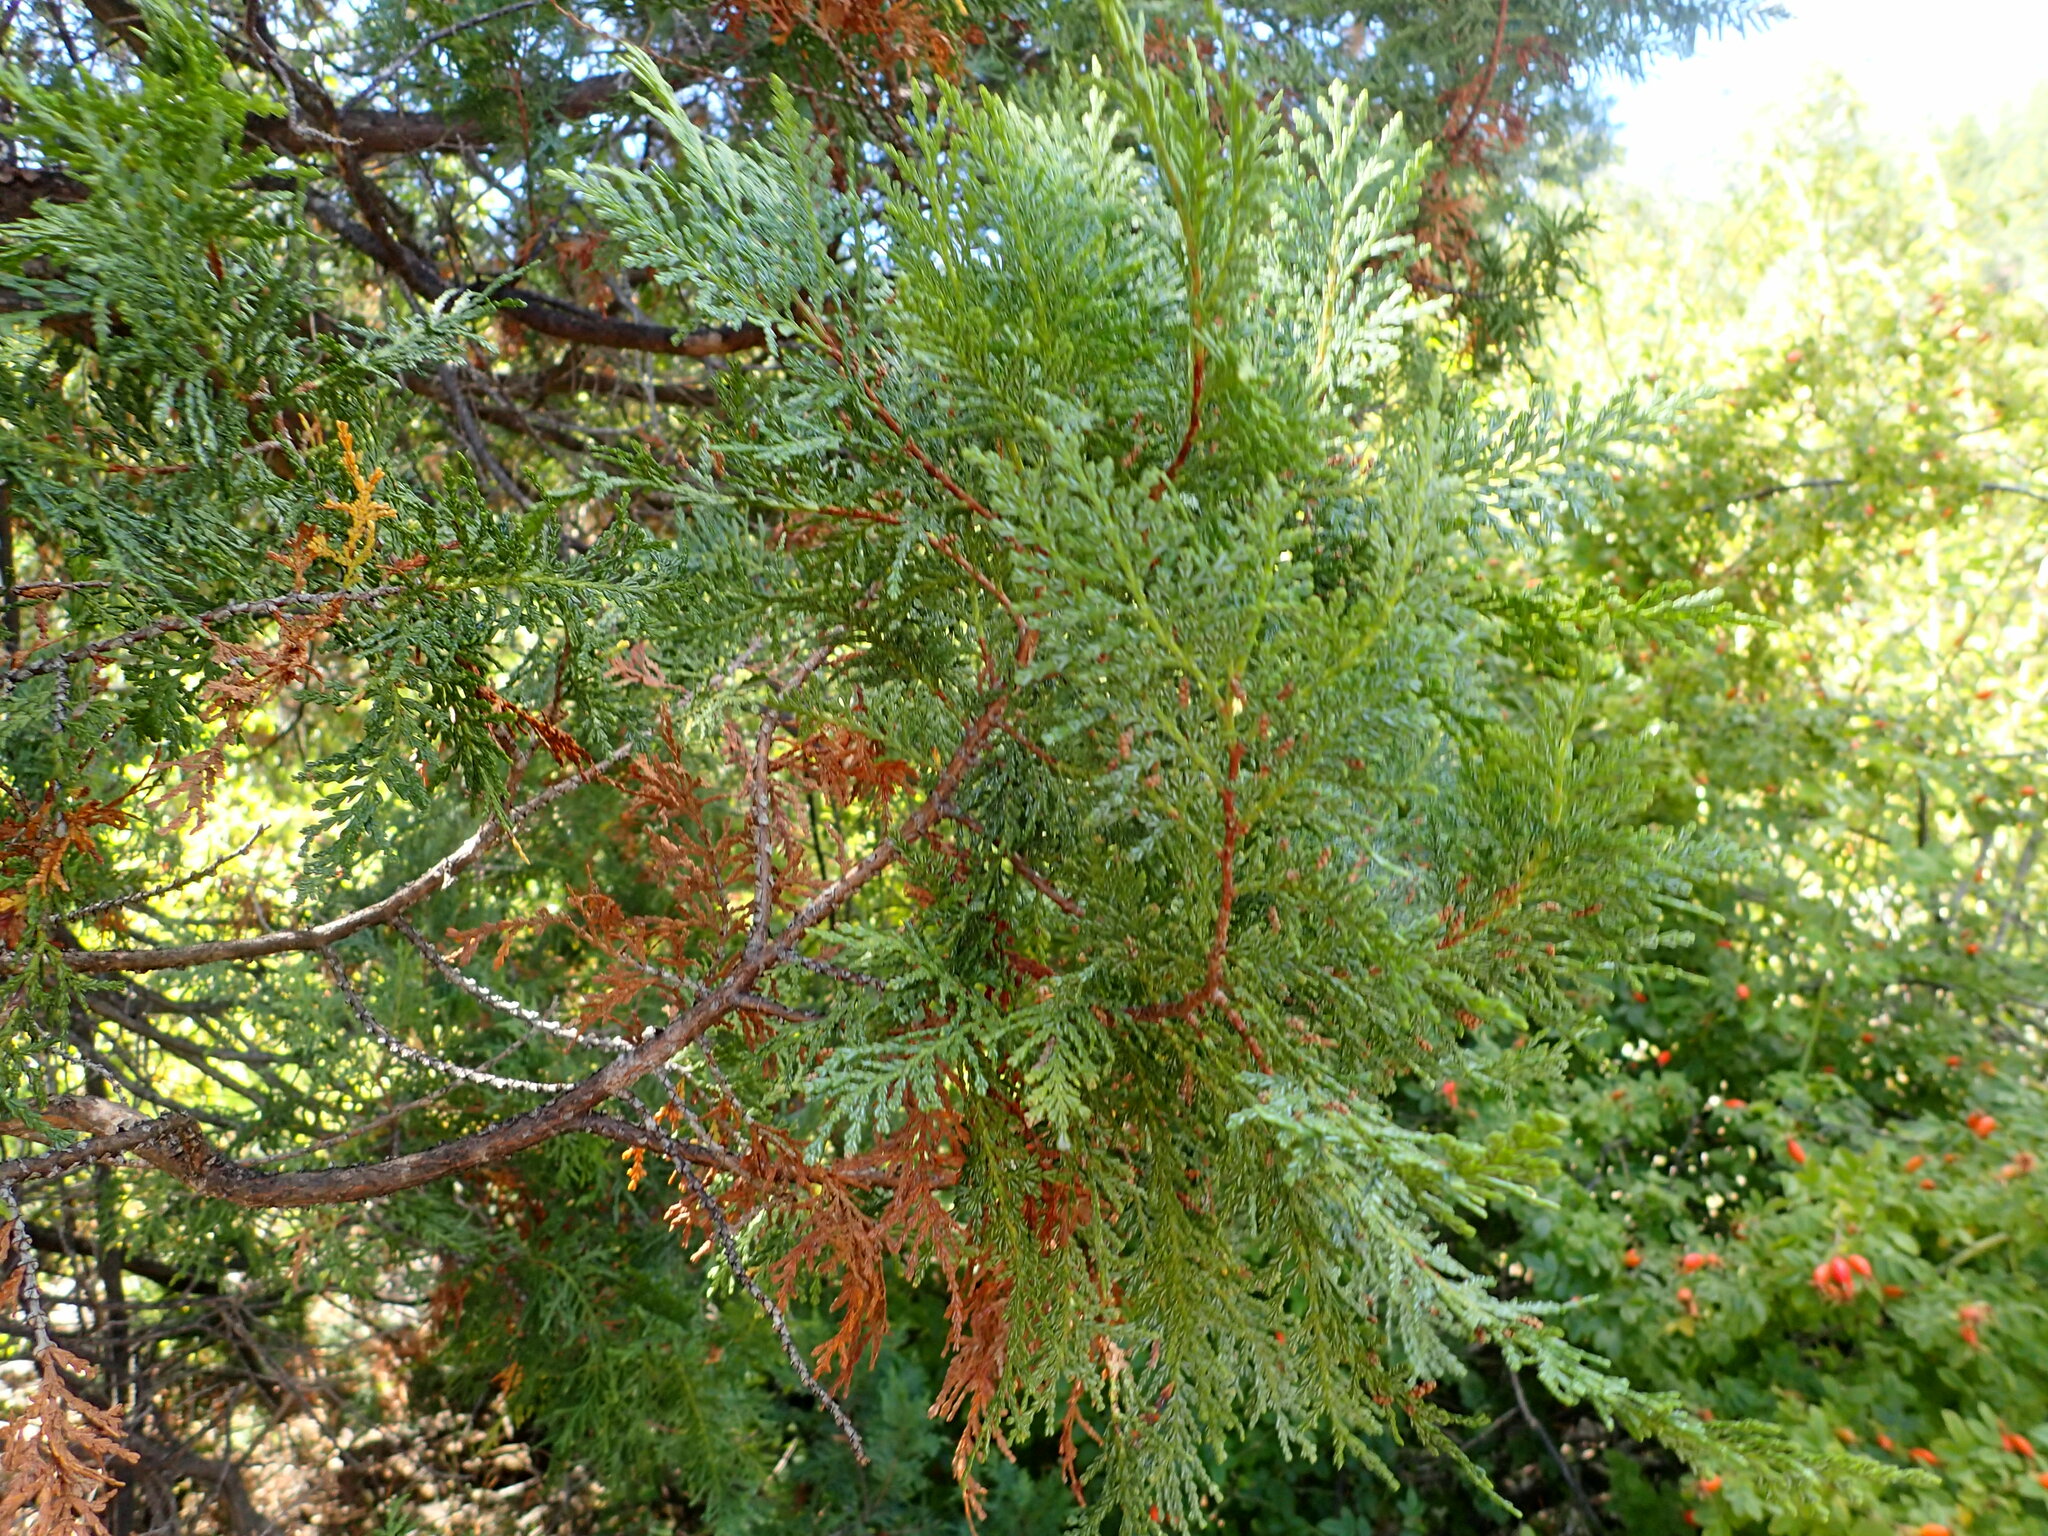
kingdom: Plantae
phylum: Tracheophyta
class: Pinopsida
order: Pinales
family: Cupressaceae
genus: Austrocedrus
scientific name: Austrocedrus chilensis
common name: Chilean incense-cedar
